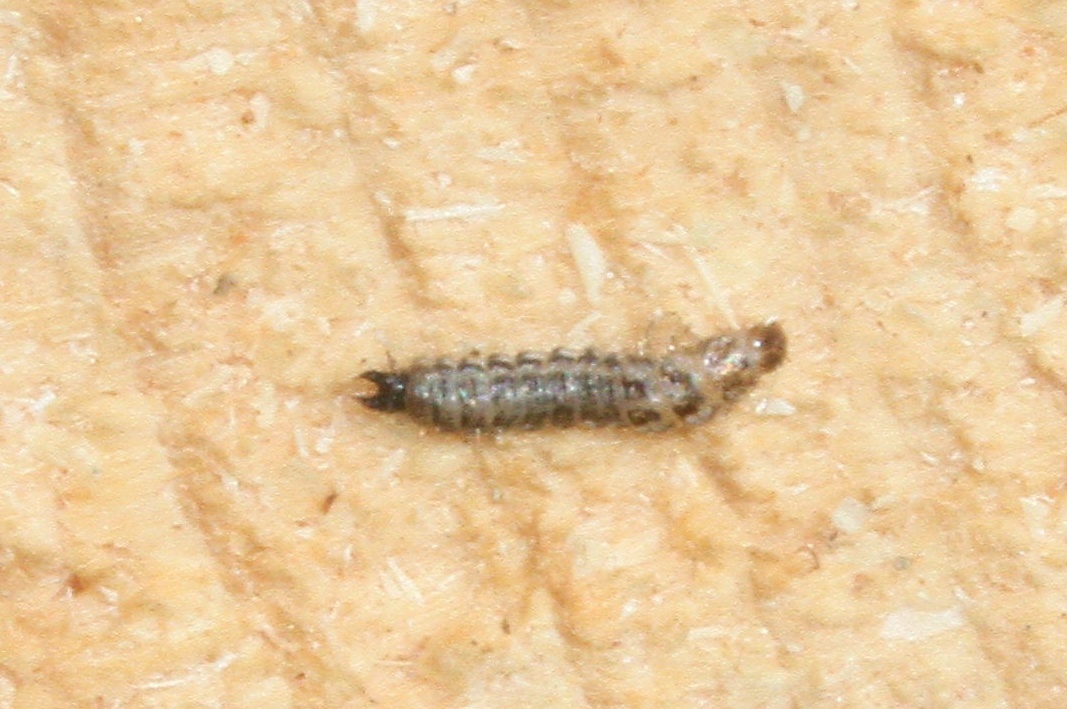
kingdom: Animalia
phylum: Arthropoda
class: Insecta
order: Coleoptera
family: Cleridae
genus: Thanasimus
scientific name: Thanasimus formicarius
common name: Ant beetle
